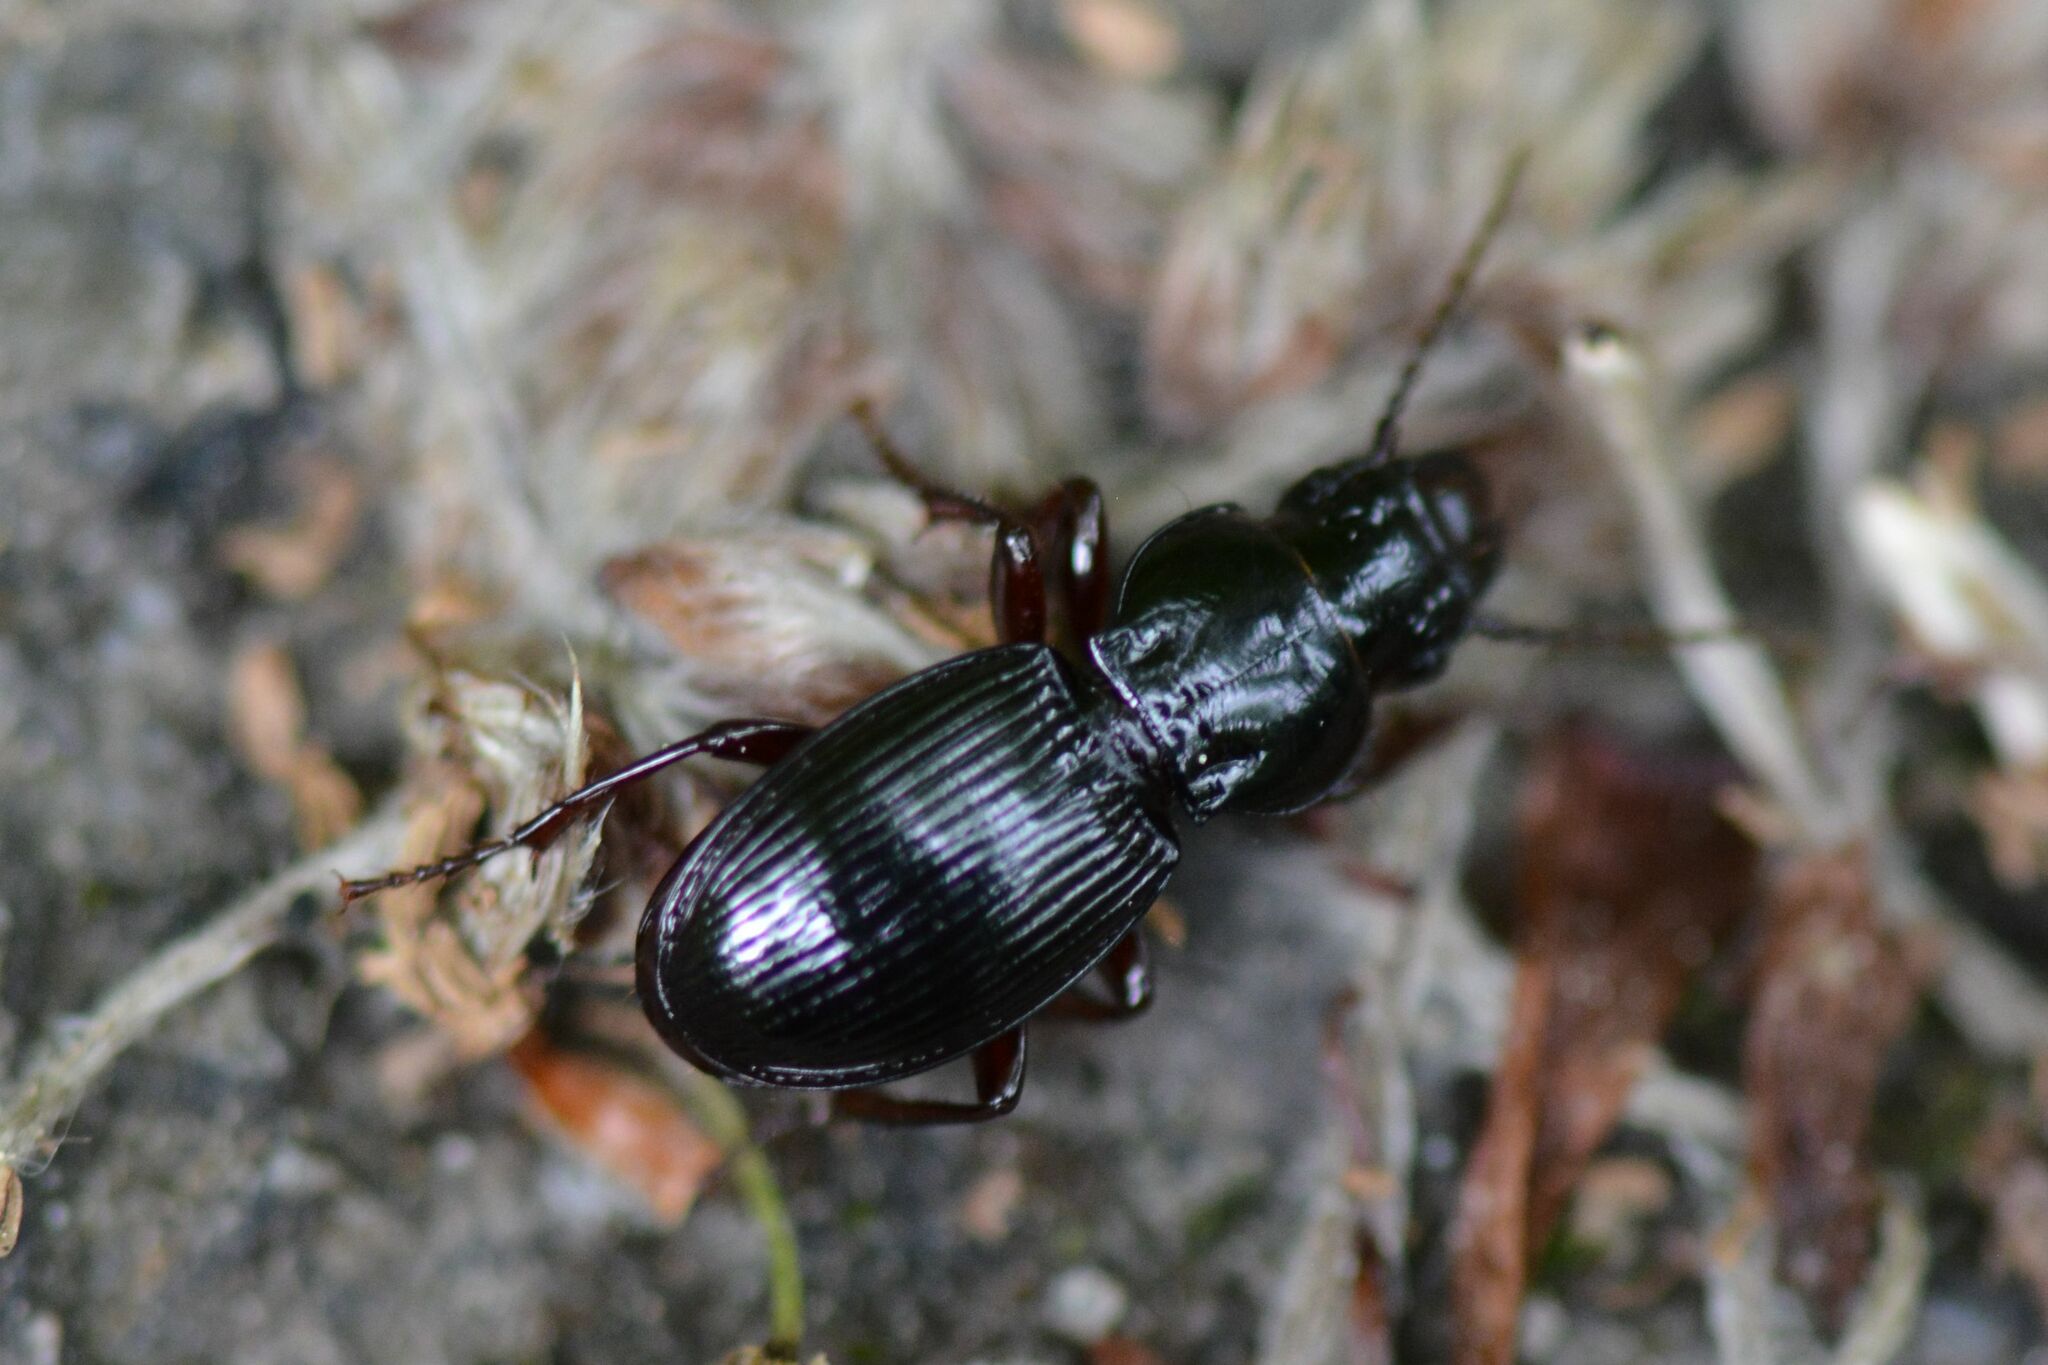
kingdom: Animalia
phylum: Arthropoda
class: Insecta
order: Coleoptera
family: Carabidae
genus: Molops
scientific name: Molops piceus
